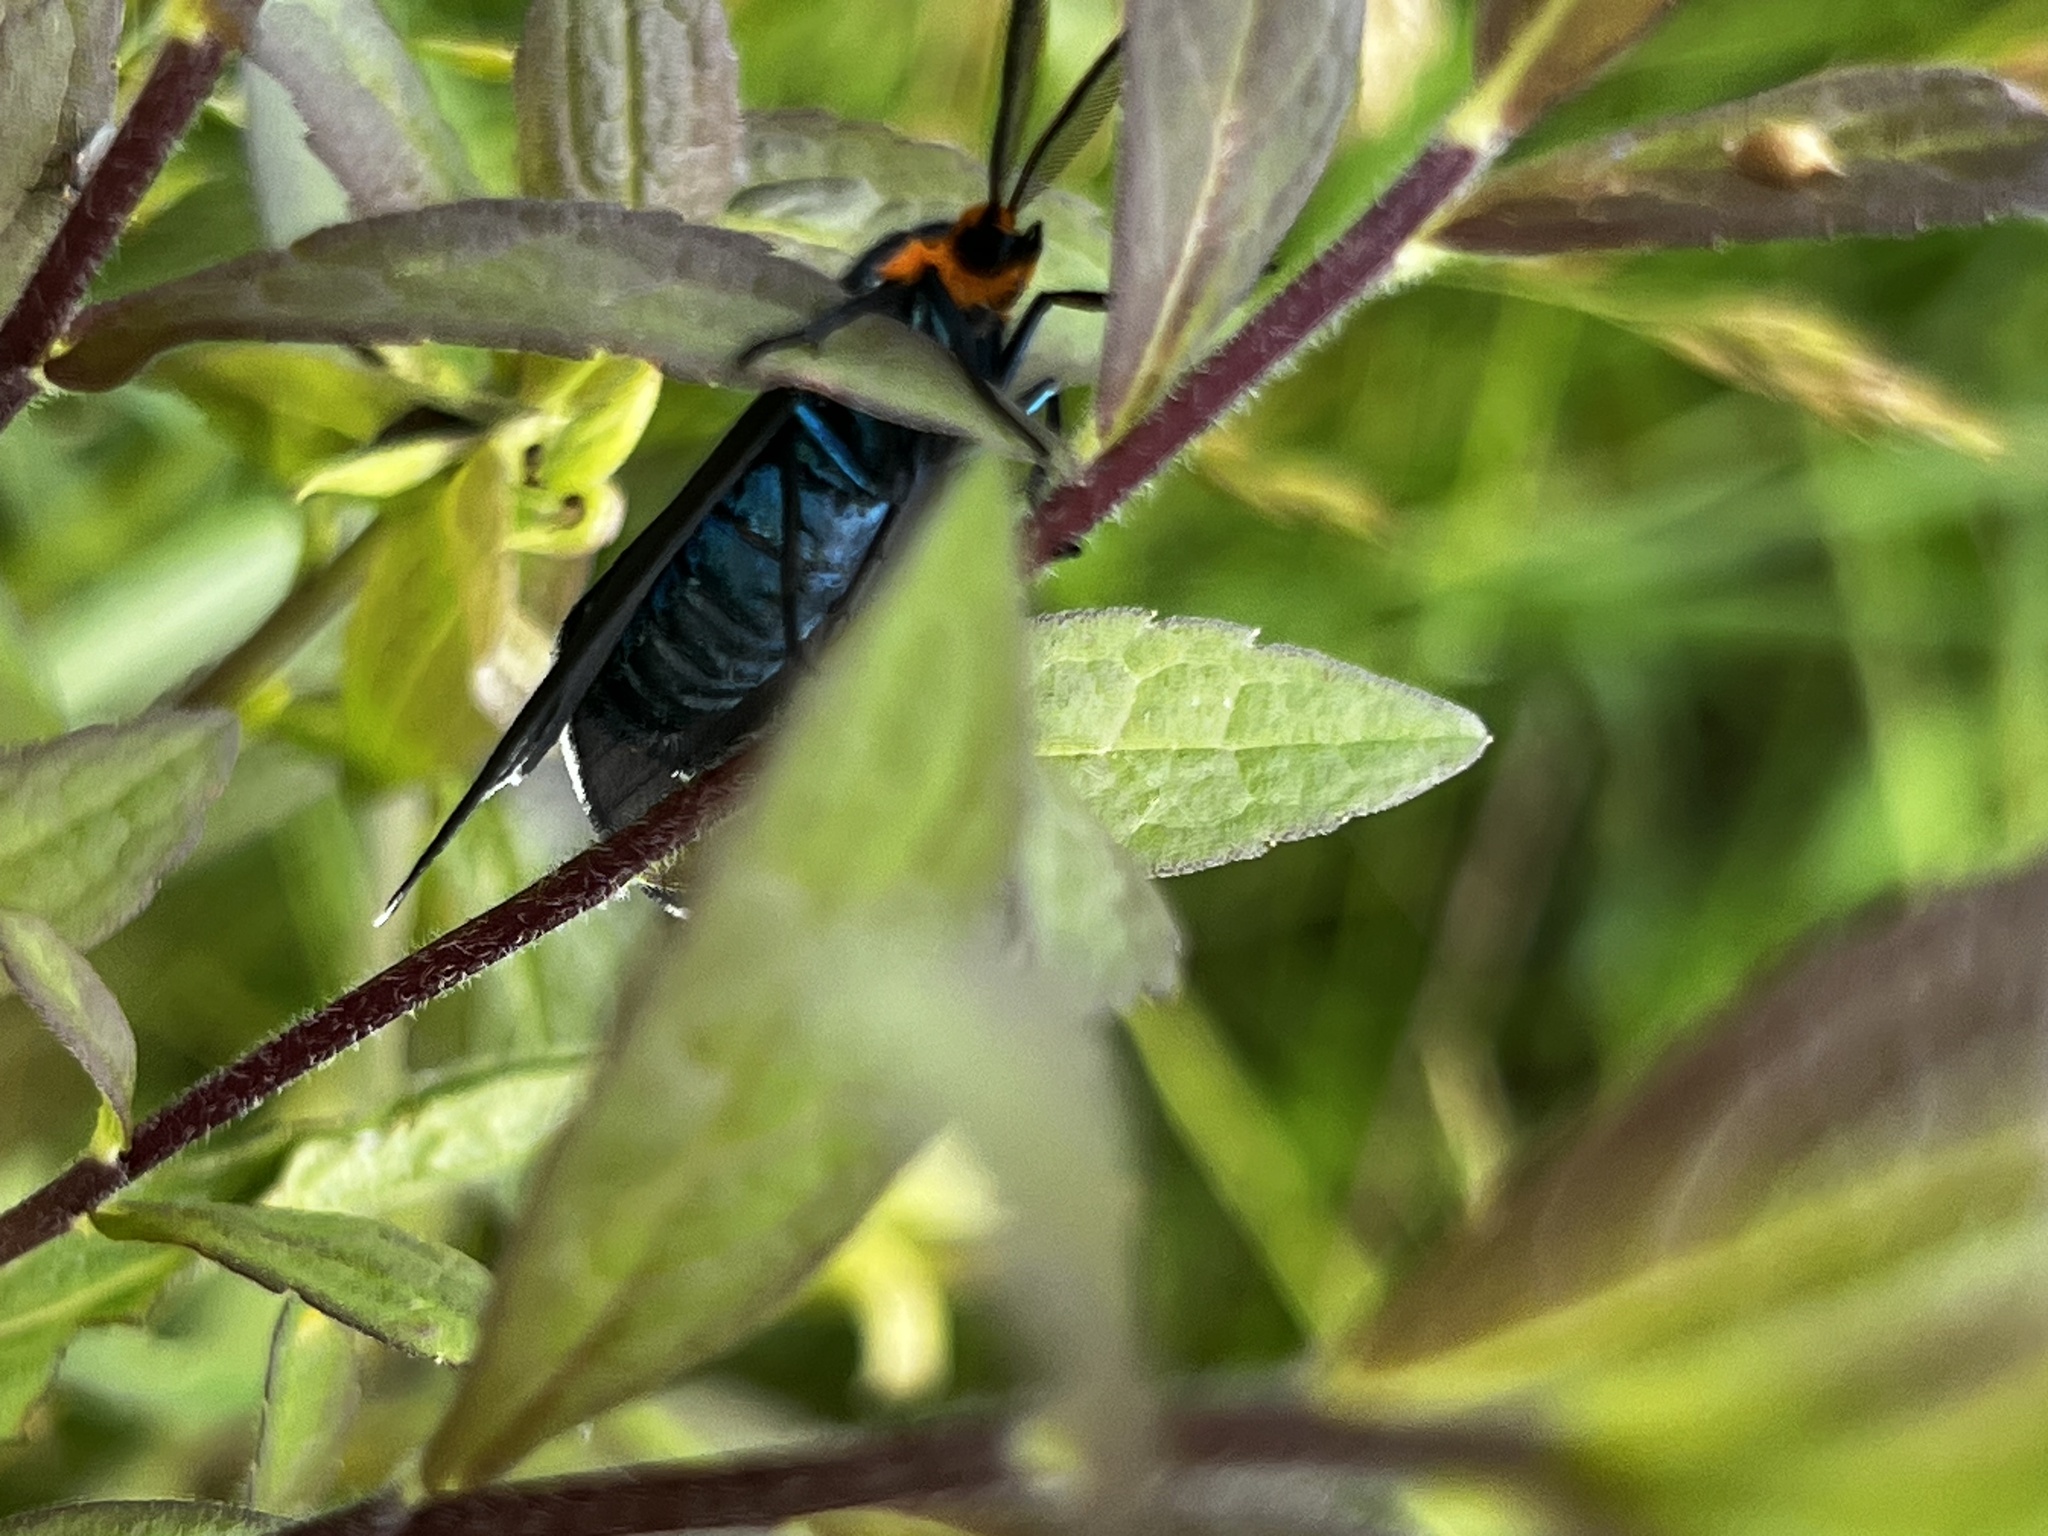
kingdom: Animalia
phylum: Arthropoda
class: Insecta
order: Lepidoptera
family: Erebidae
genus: Ctenucha
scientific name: Ctenucha virginica
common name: Virginia ctenucha moth
